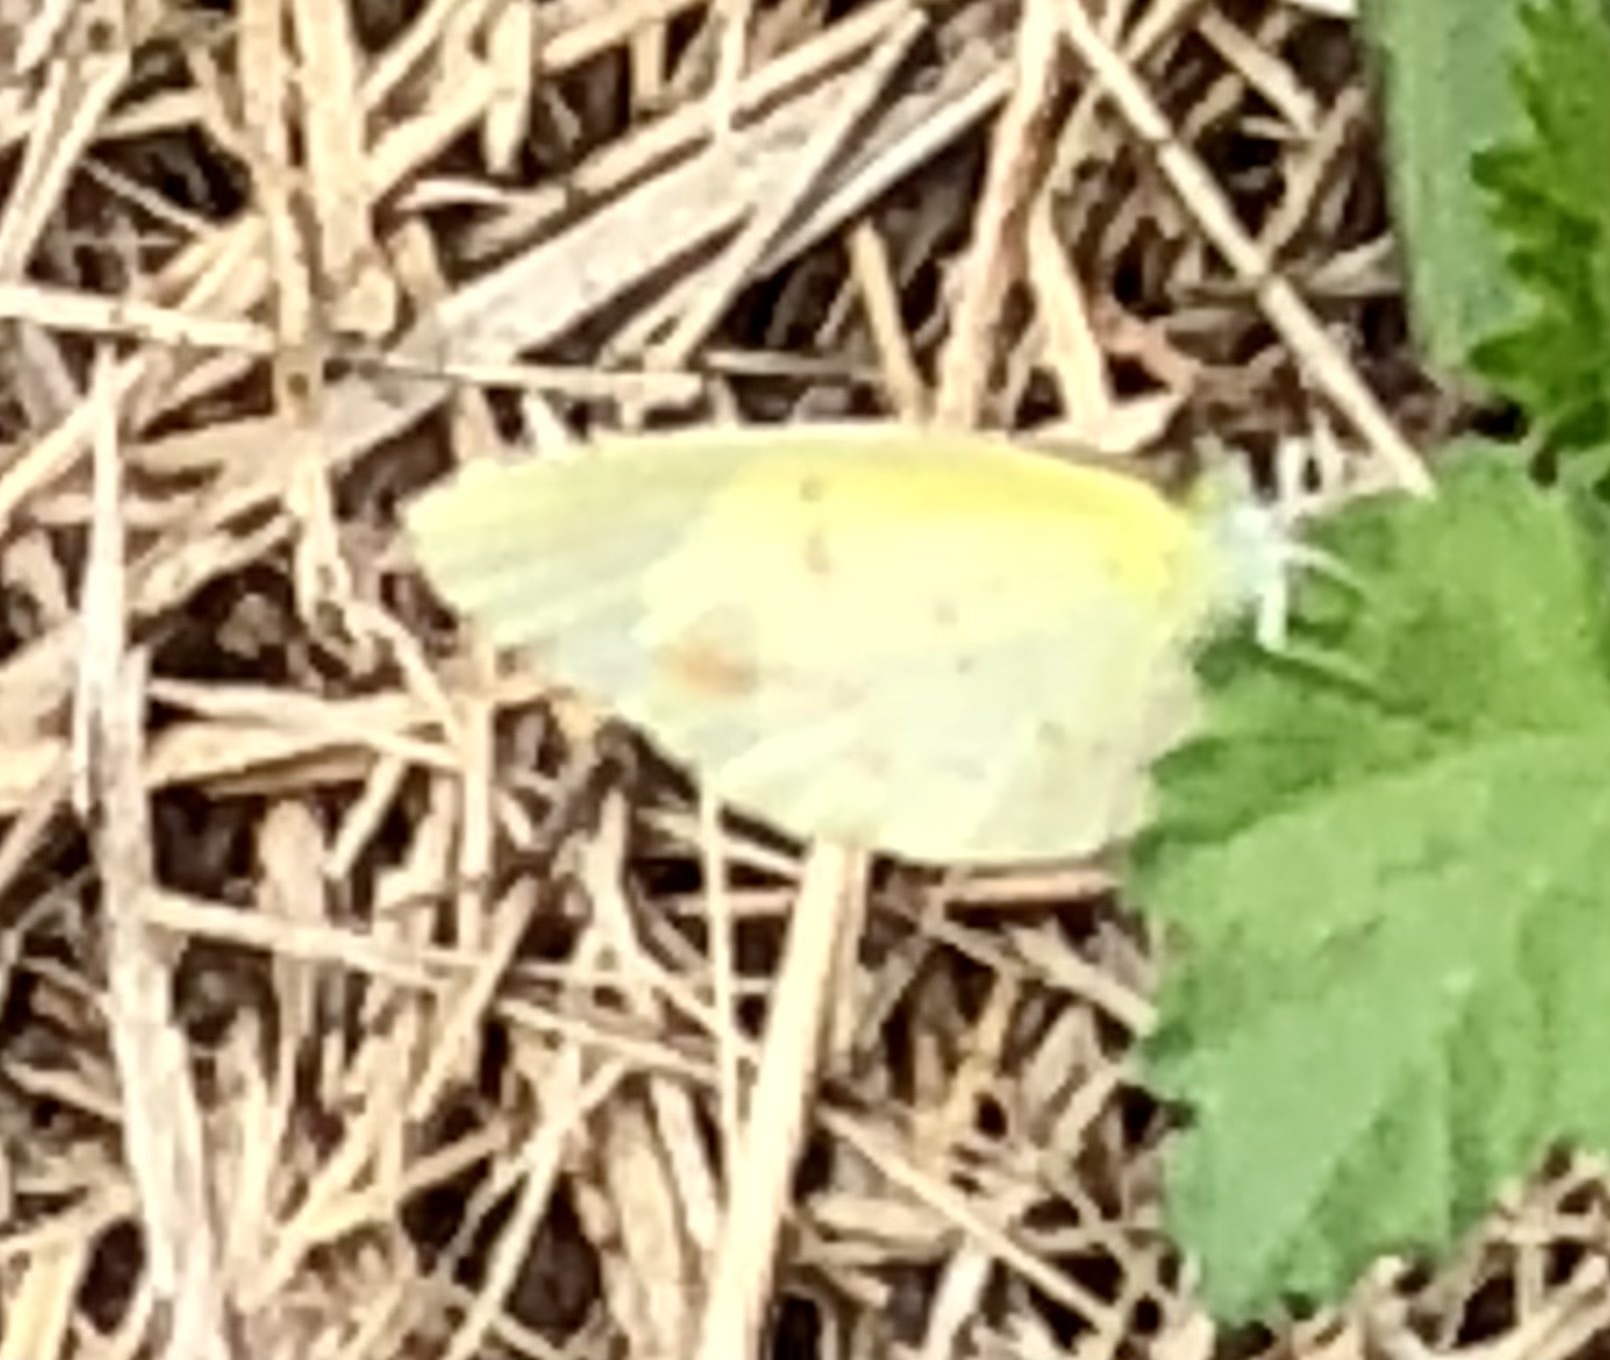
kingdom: Animalia
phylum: Arthropoda
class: Insecta
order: Lepidoptera
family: Pieridae
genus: Pyrisitia
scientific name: Pyrisitia lisa
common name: Little yellow
